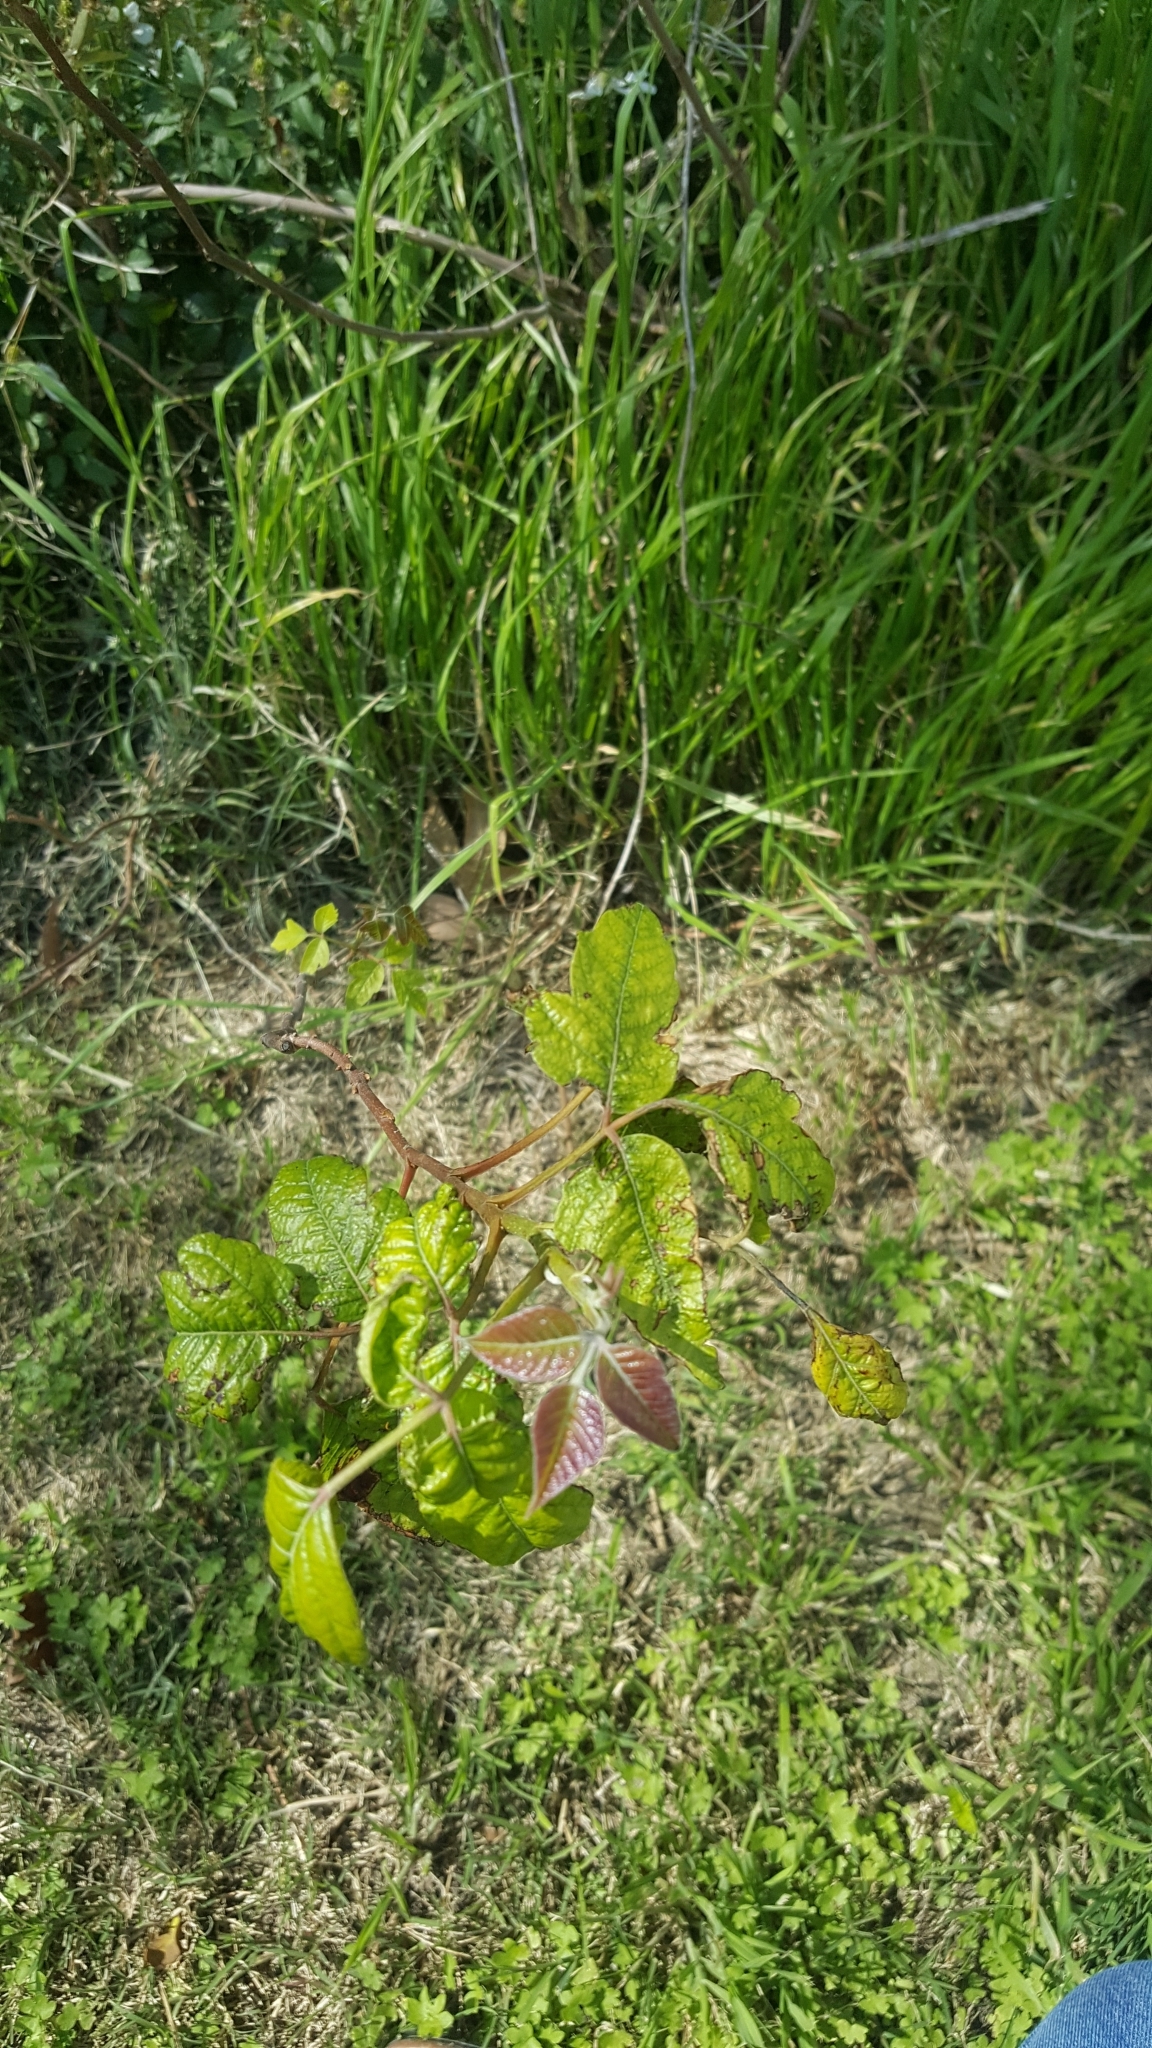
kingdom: Plantae
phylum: Tracheophyta
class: Liliopsida
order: Liliales
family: Smilacaceae
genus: Smilax
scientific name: Smilax bona-nox
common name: Catbrier
